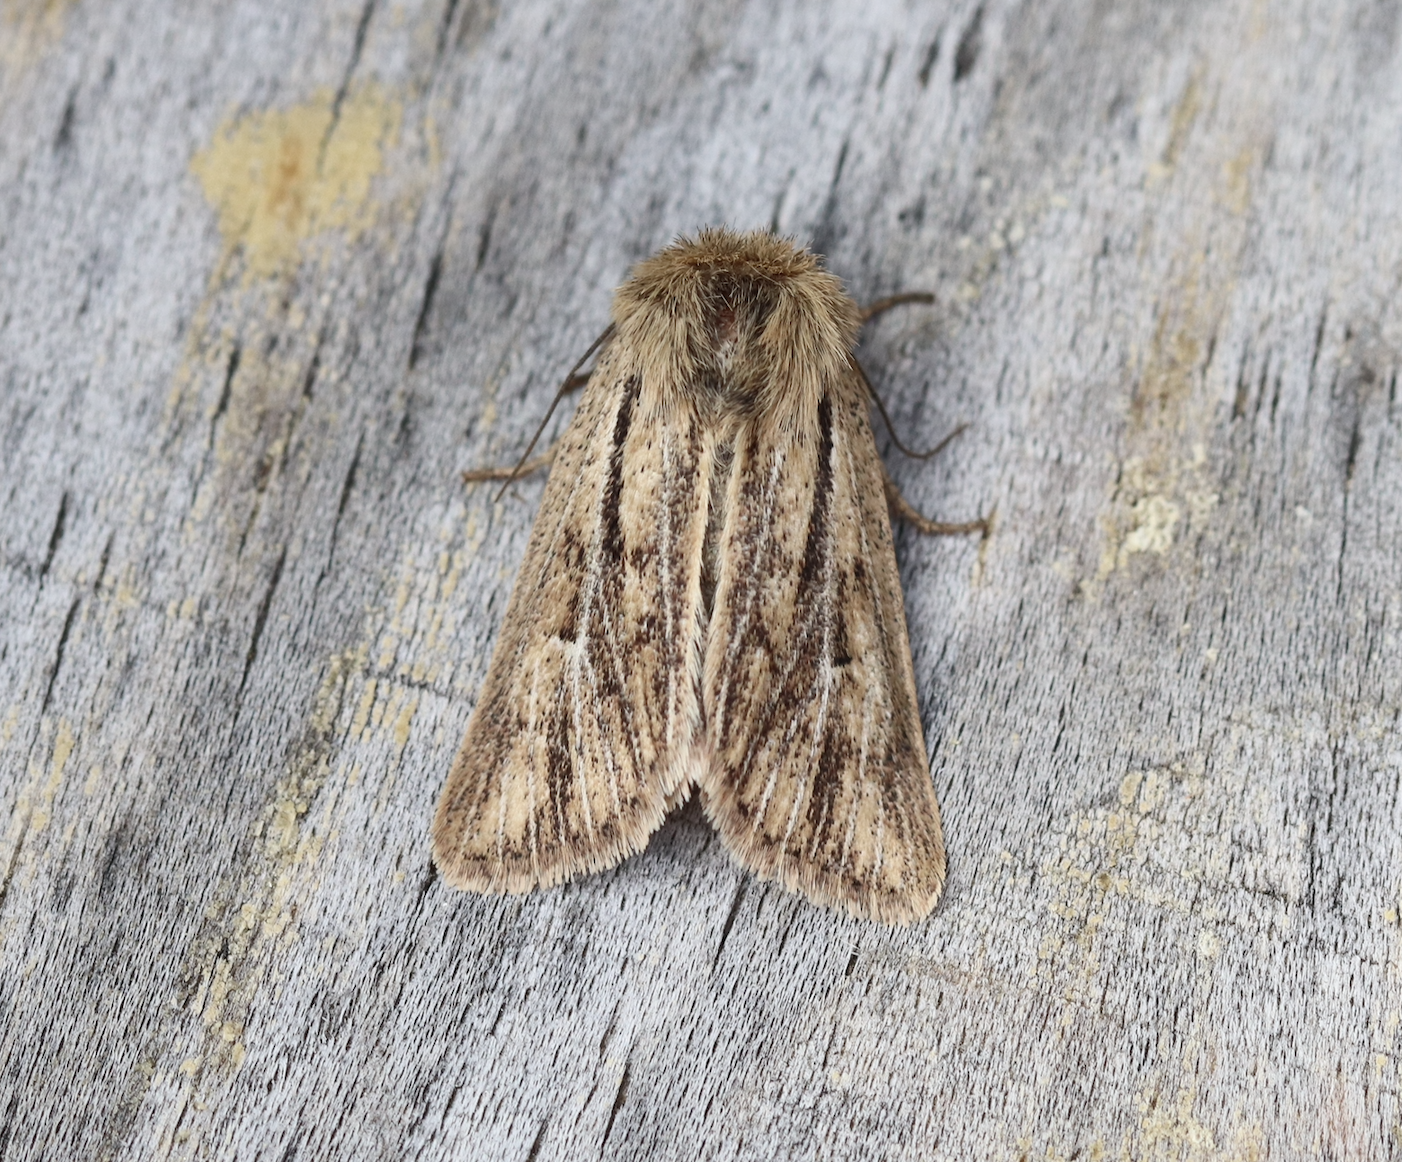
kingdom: Animalia
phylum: Arthropoda
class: Insecta
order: Lepidoptera
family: Noctuidae
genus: Mythimna
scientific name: Mythimna anderreggii
